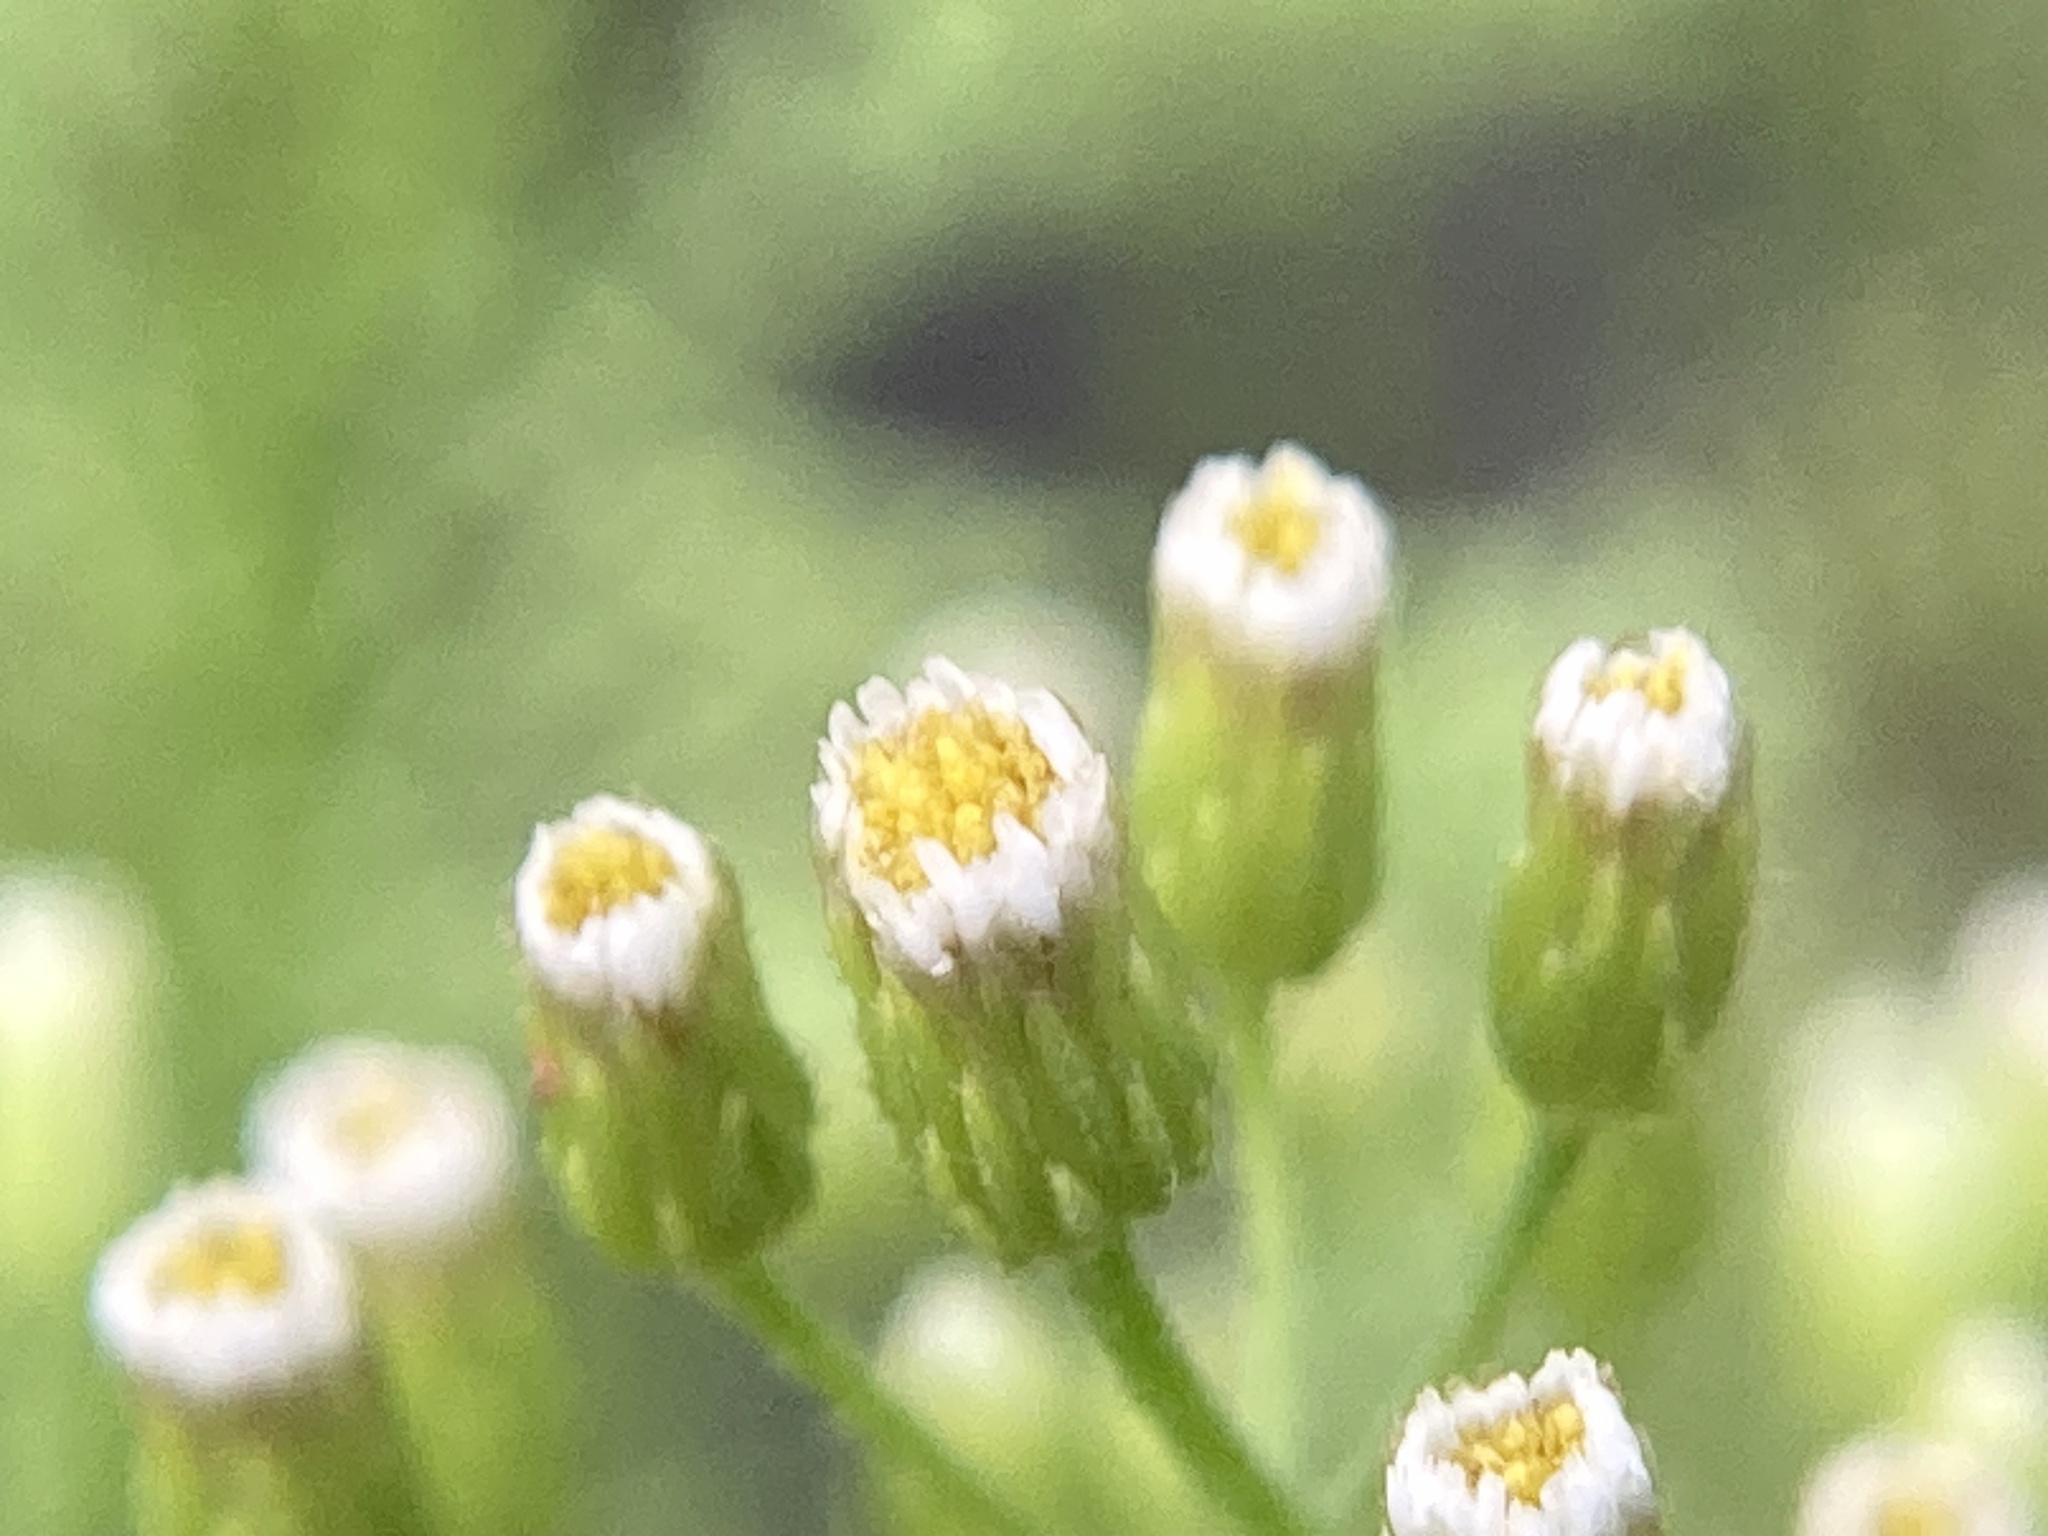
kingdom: Plantae
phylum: Tracheophyta
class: Magnoliopsida
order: Fabales
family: Fabaceae
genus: Melilotus
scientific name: Melilotus albus
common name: White melilot
